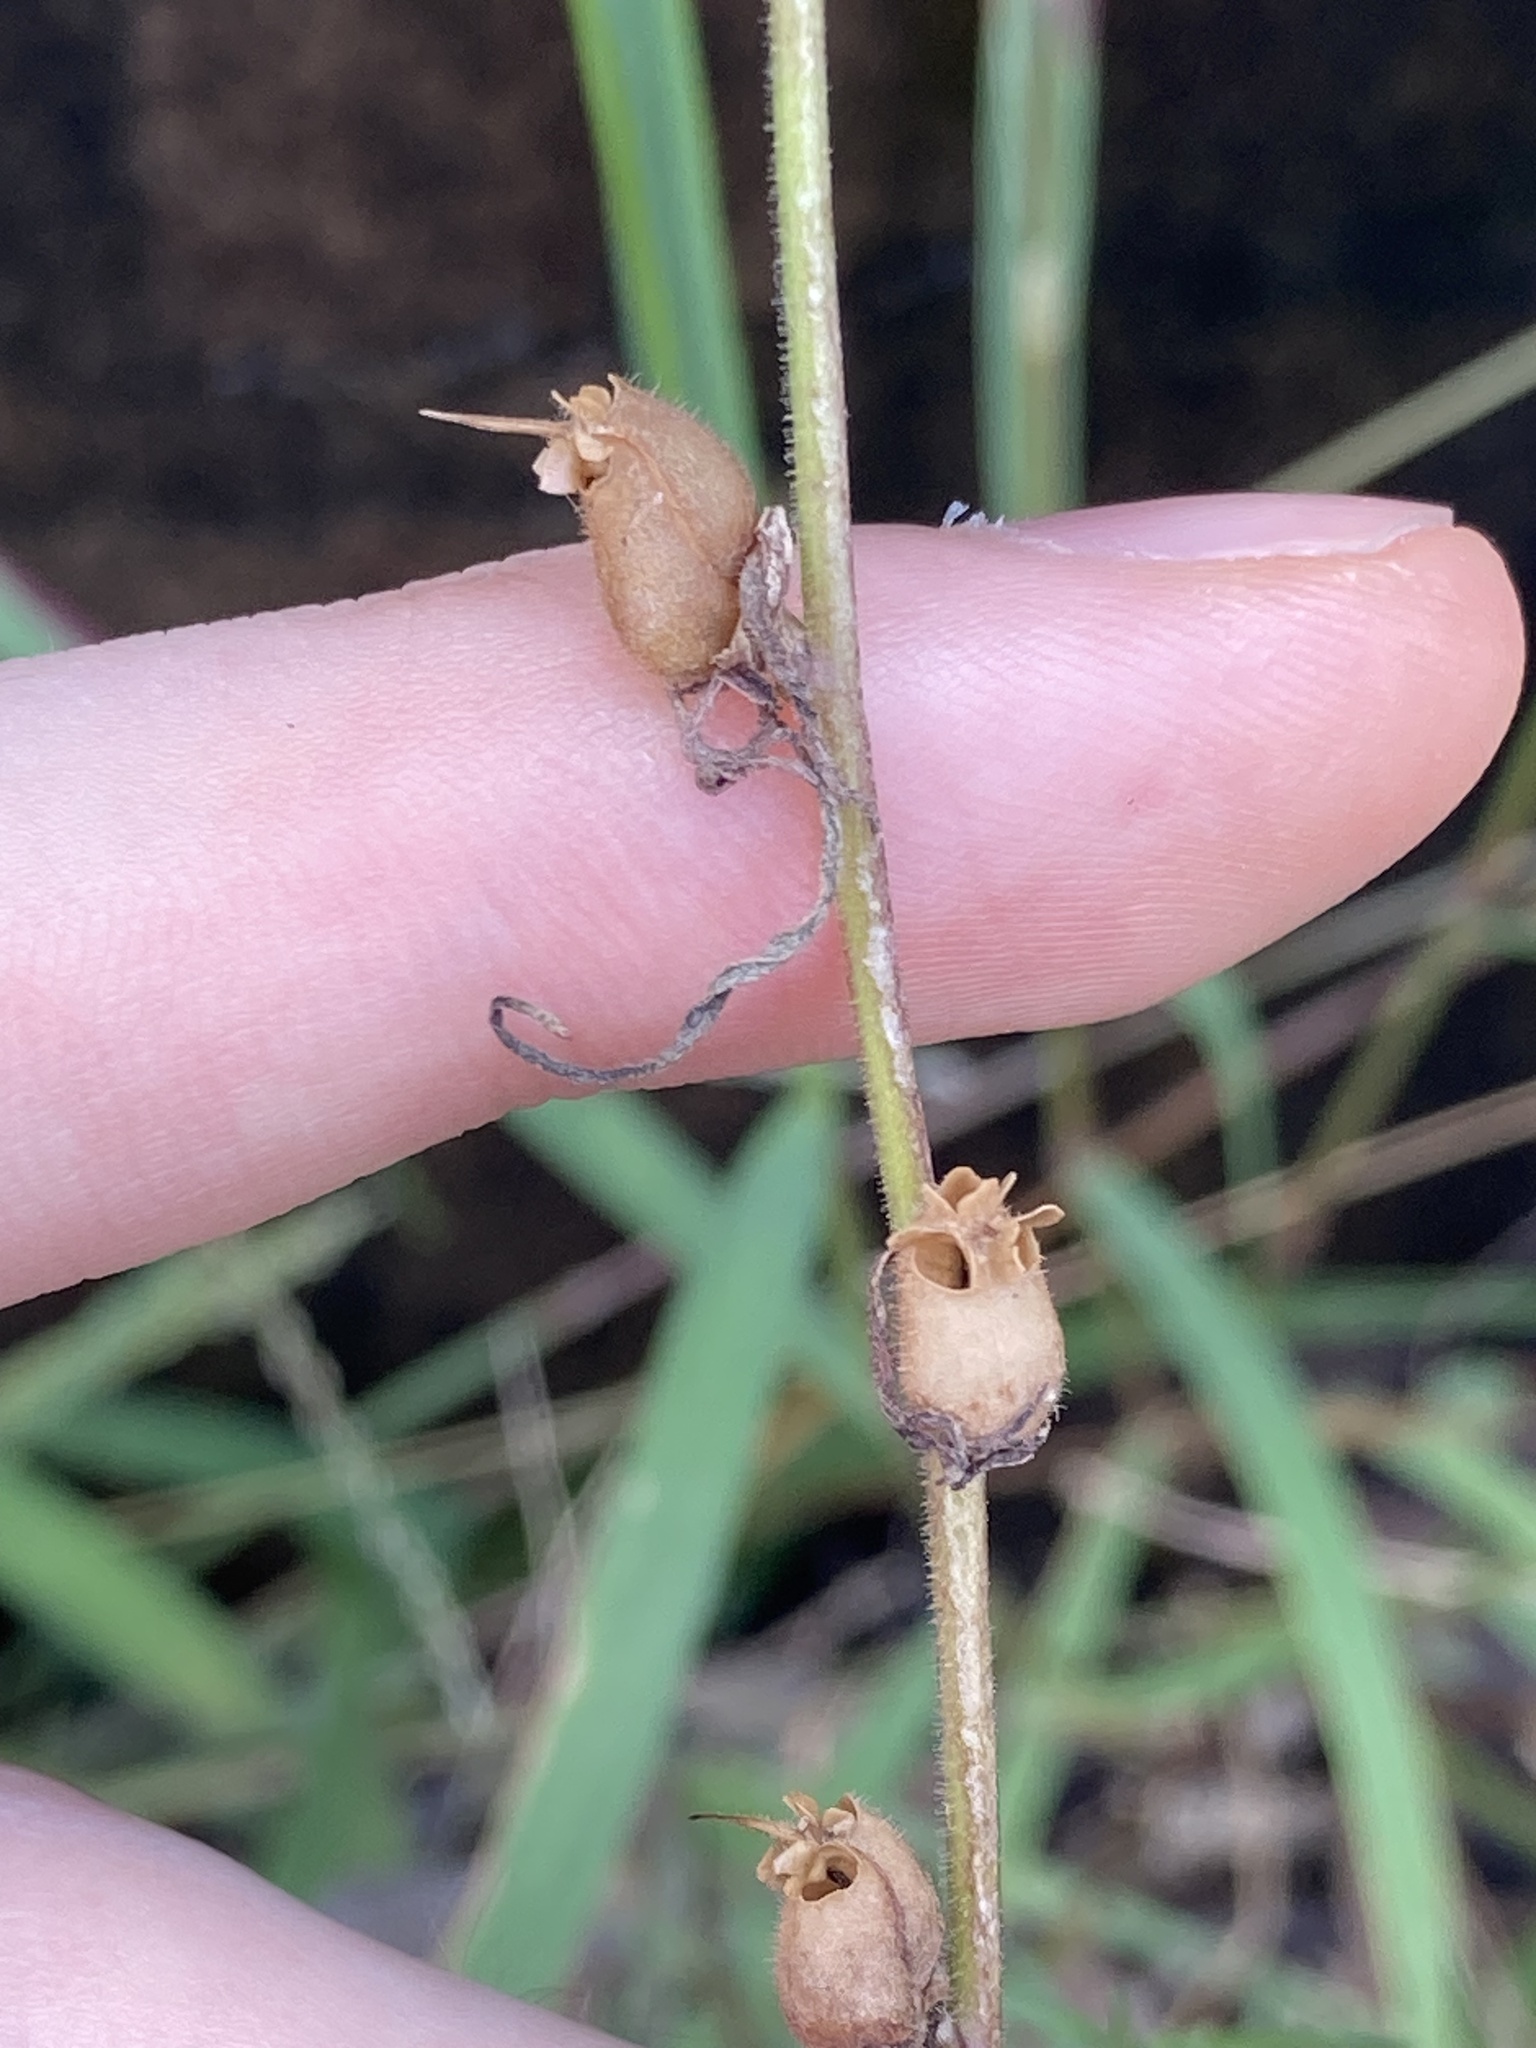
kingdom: Plantae
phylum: Tracheophyta
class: Magnoliopsida
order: Lamiales
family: Plantaginaceae
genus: Misopates
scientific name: Misopates orontium
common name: Weasel's-snout
